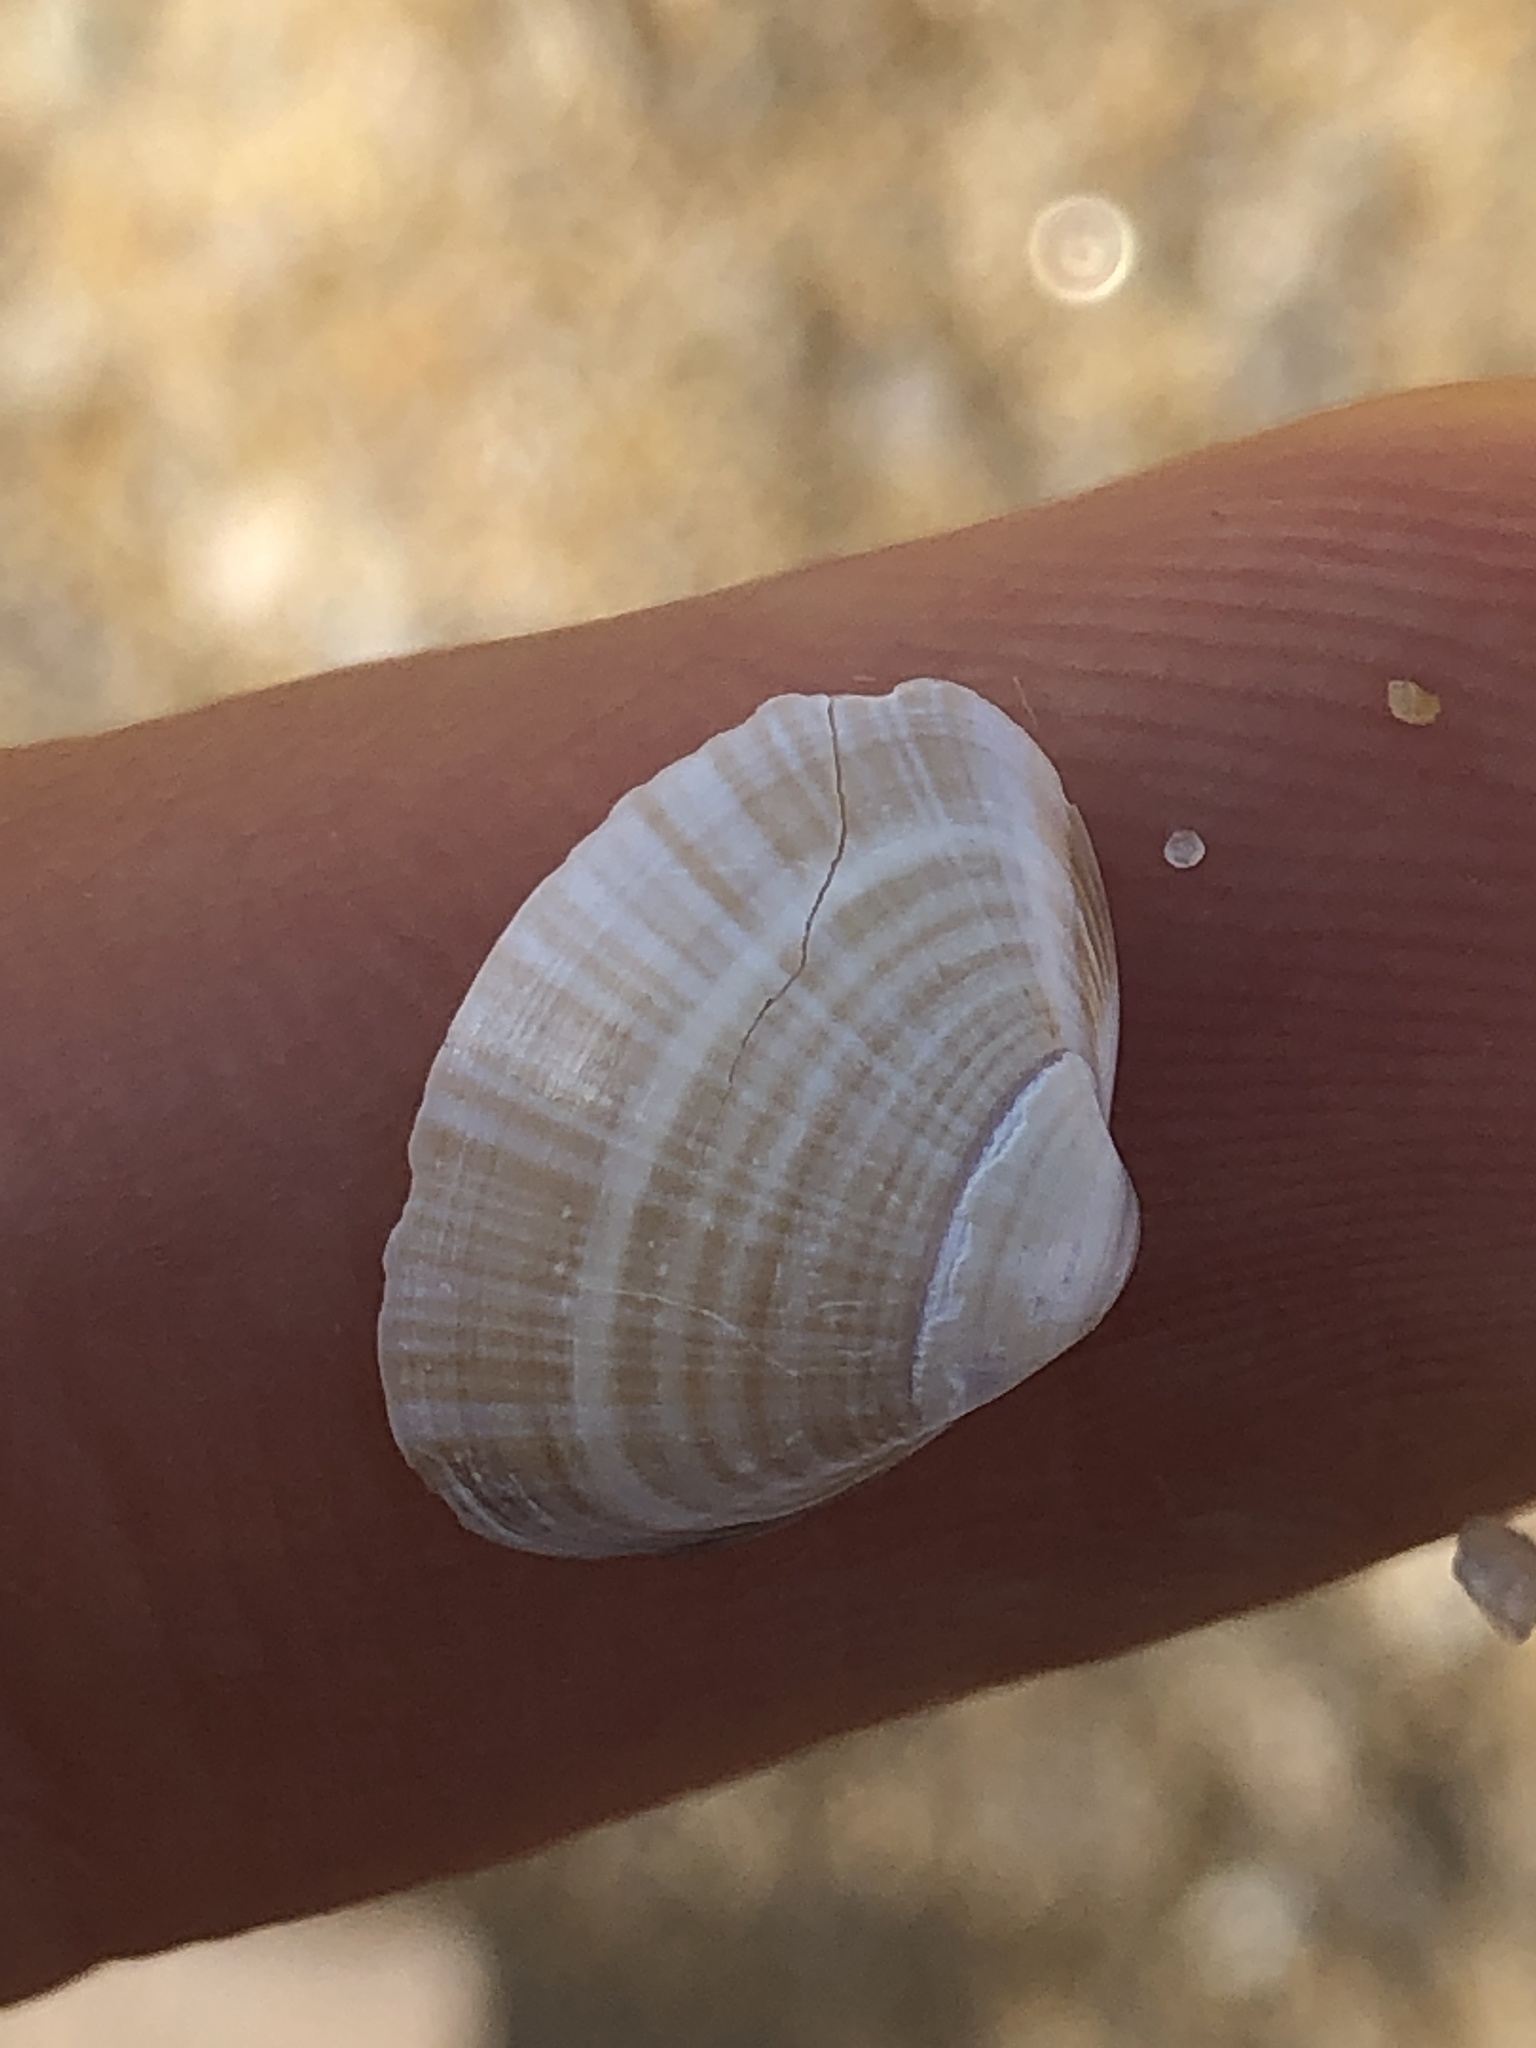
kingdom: Animalia
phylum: Mollusca
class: Bivalvia
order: Venerida
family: Mactridae
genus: Mactra
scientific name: Mactra chinensis
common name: Chinese surf clam
